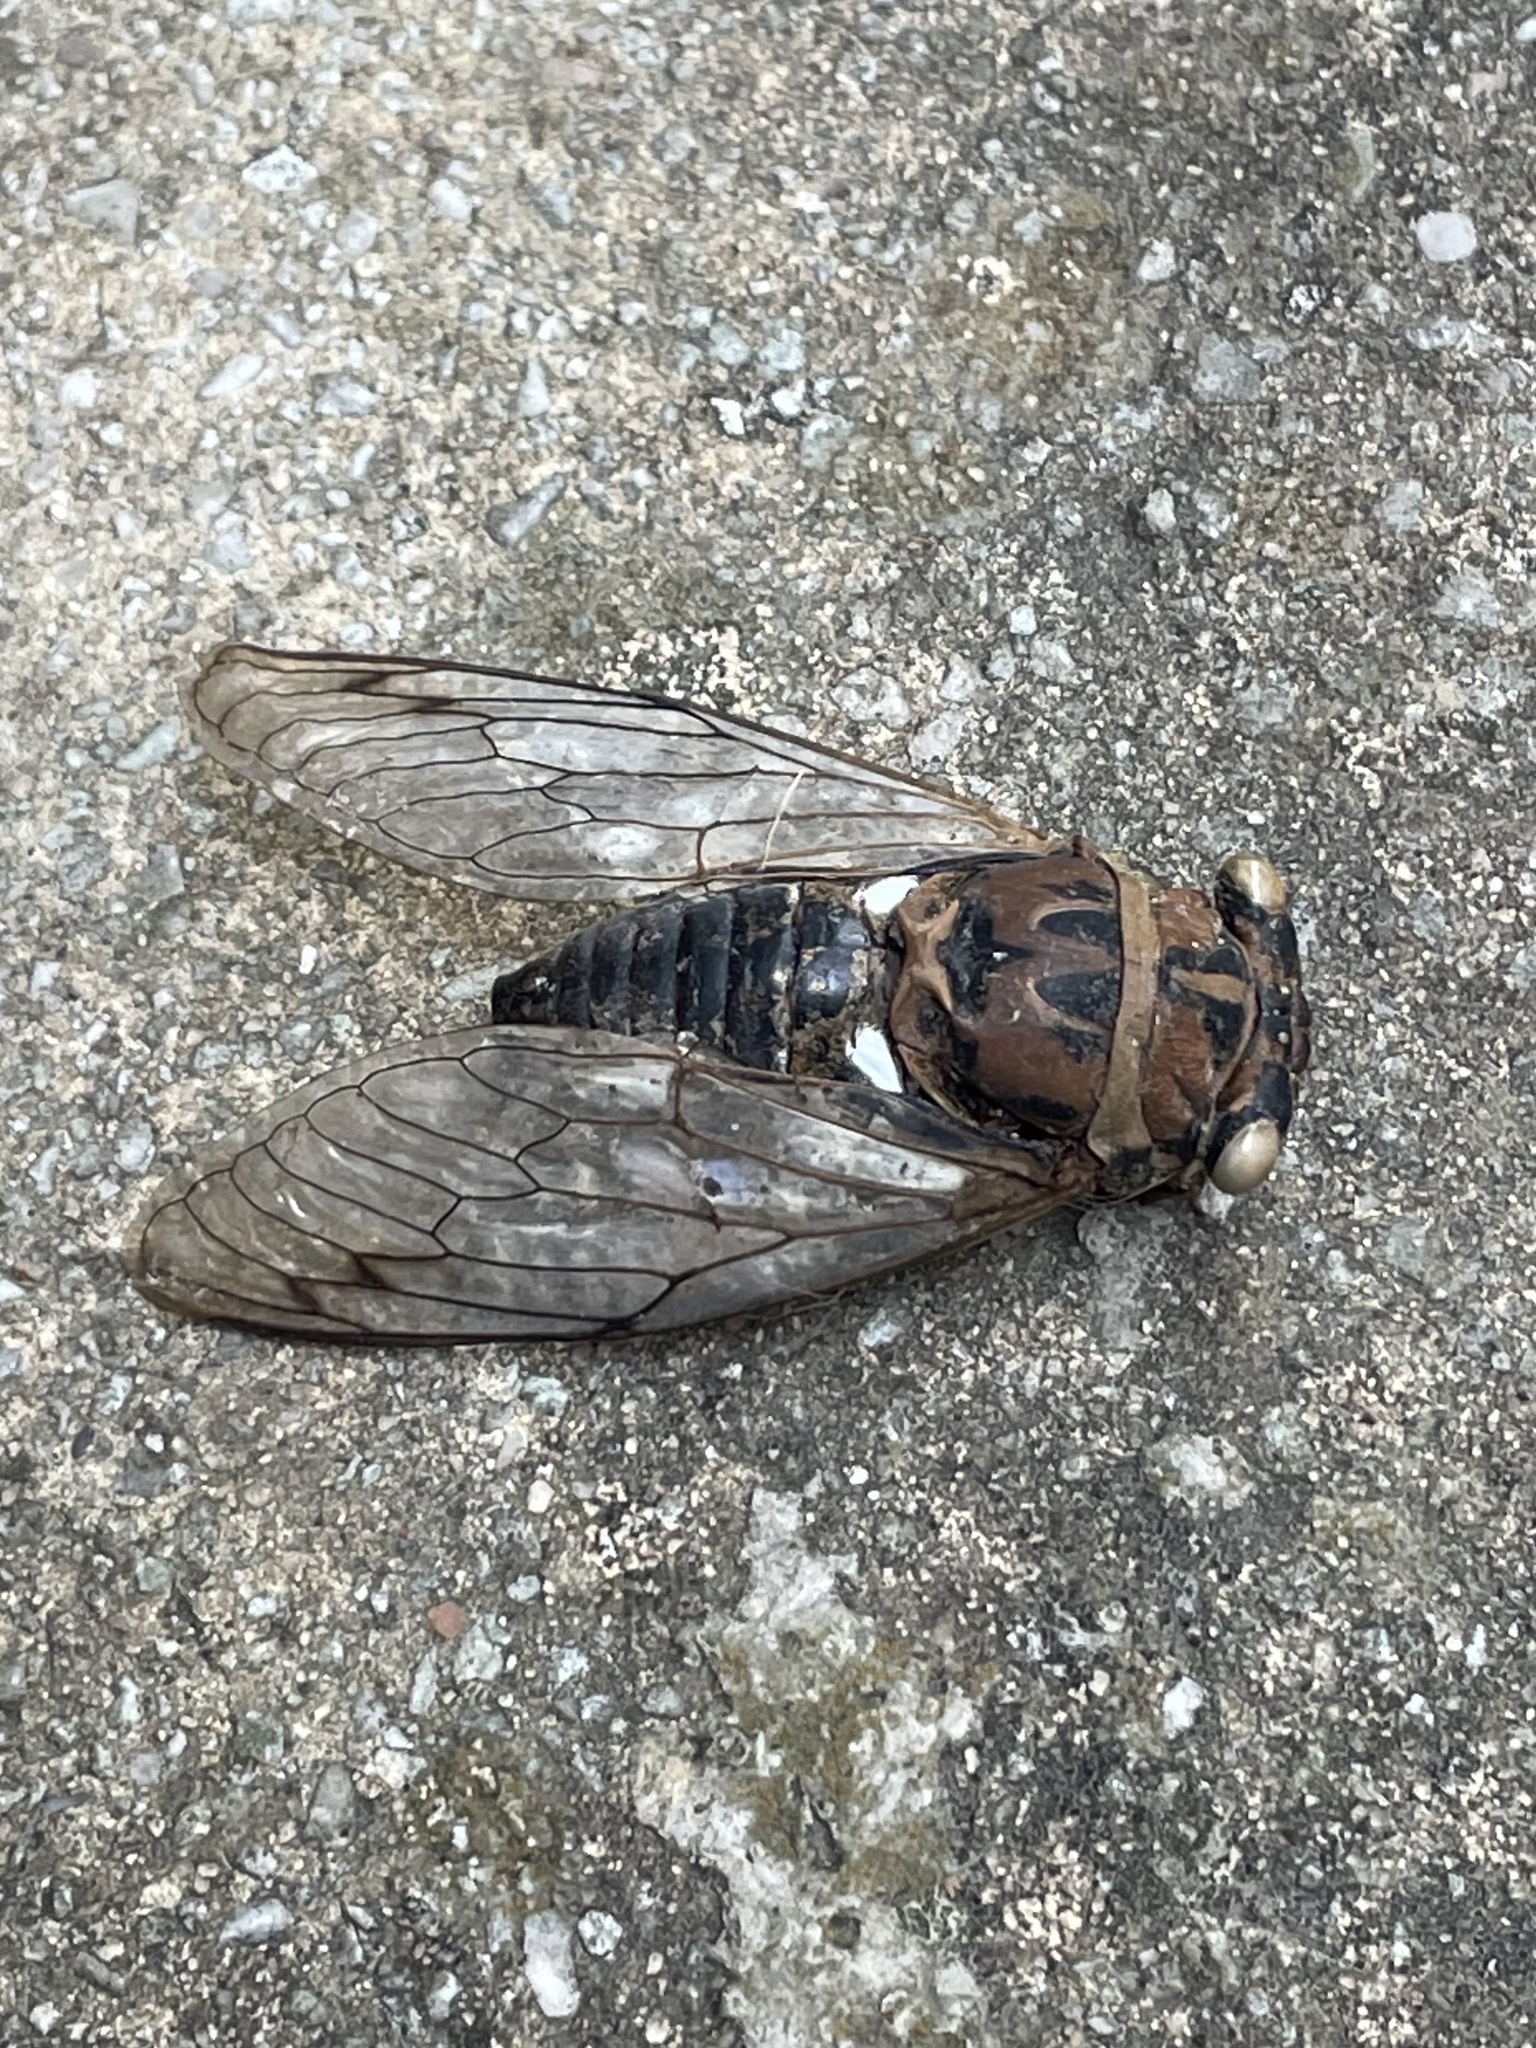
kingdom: Animalia
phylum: Arthropoda
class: Insecta
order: Hemiptera
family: Cicadidae
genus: Neotibicen
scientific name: Neotibicen pruinosus
